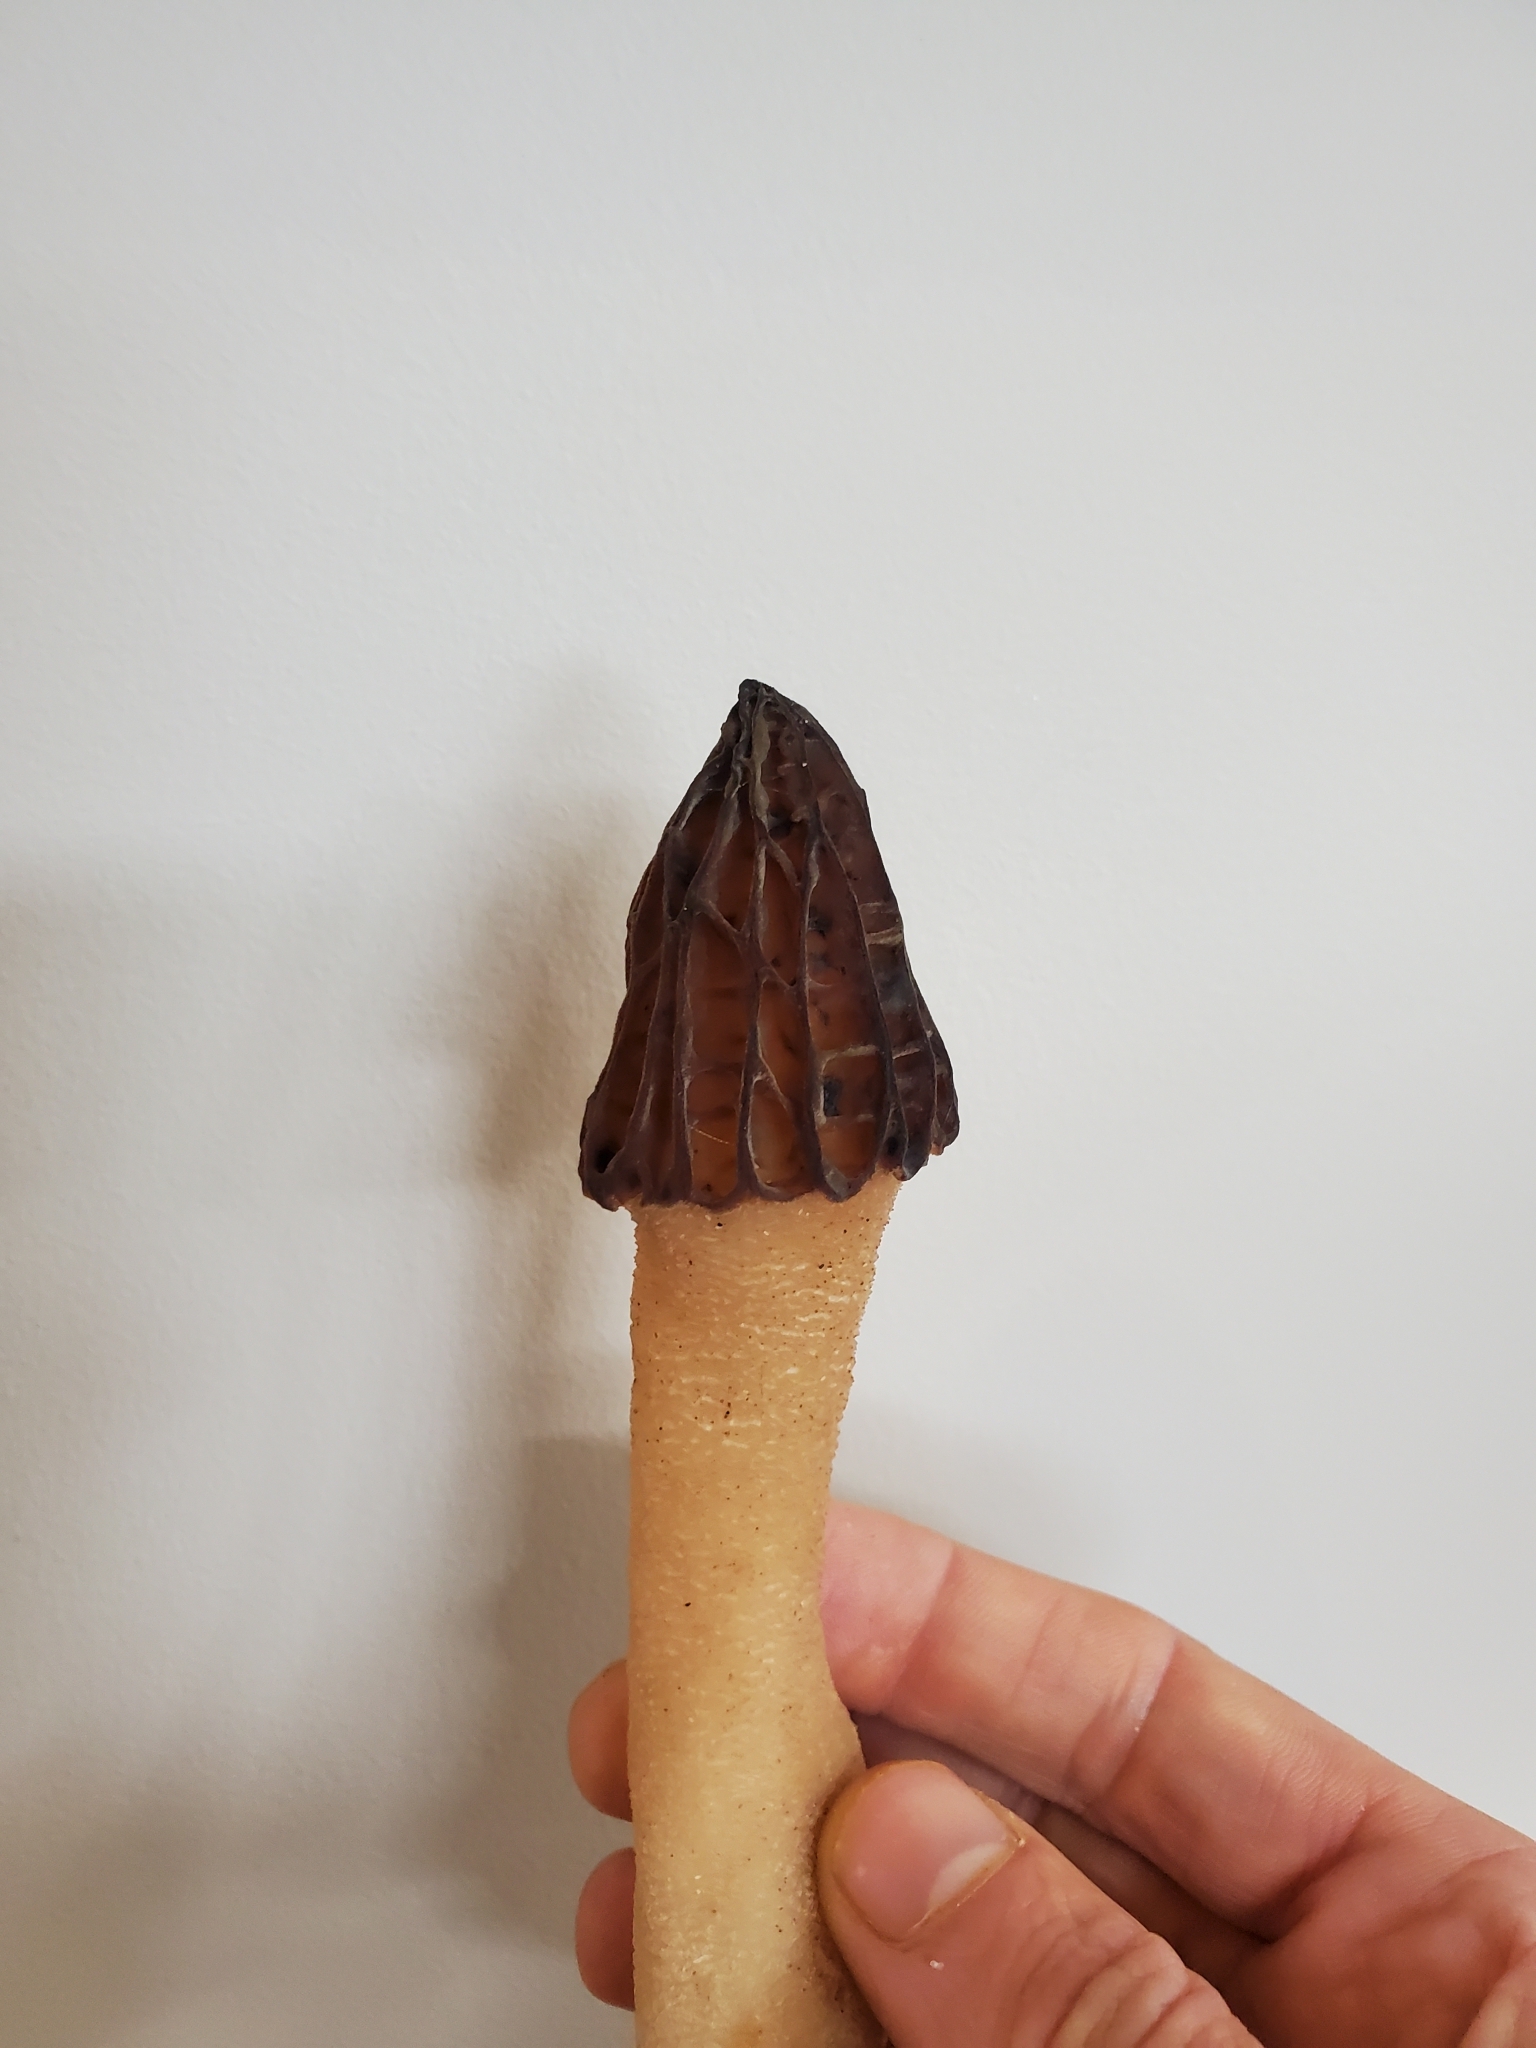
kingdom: Fungi
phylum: Ascomycota
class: Pezizomycetes
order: Pezizales
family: Morchellaceae
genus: Morchella
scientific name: Morchella australiana
